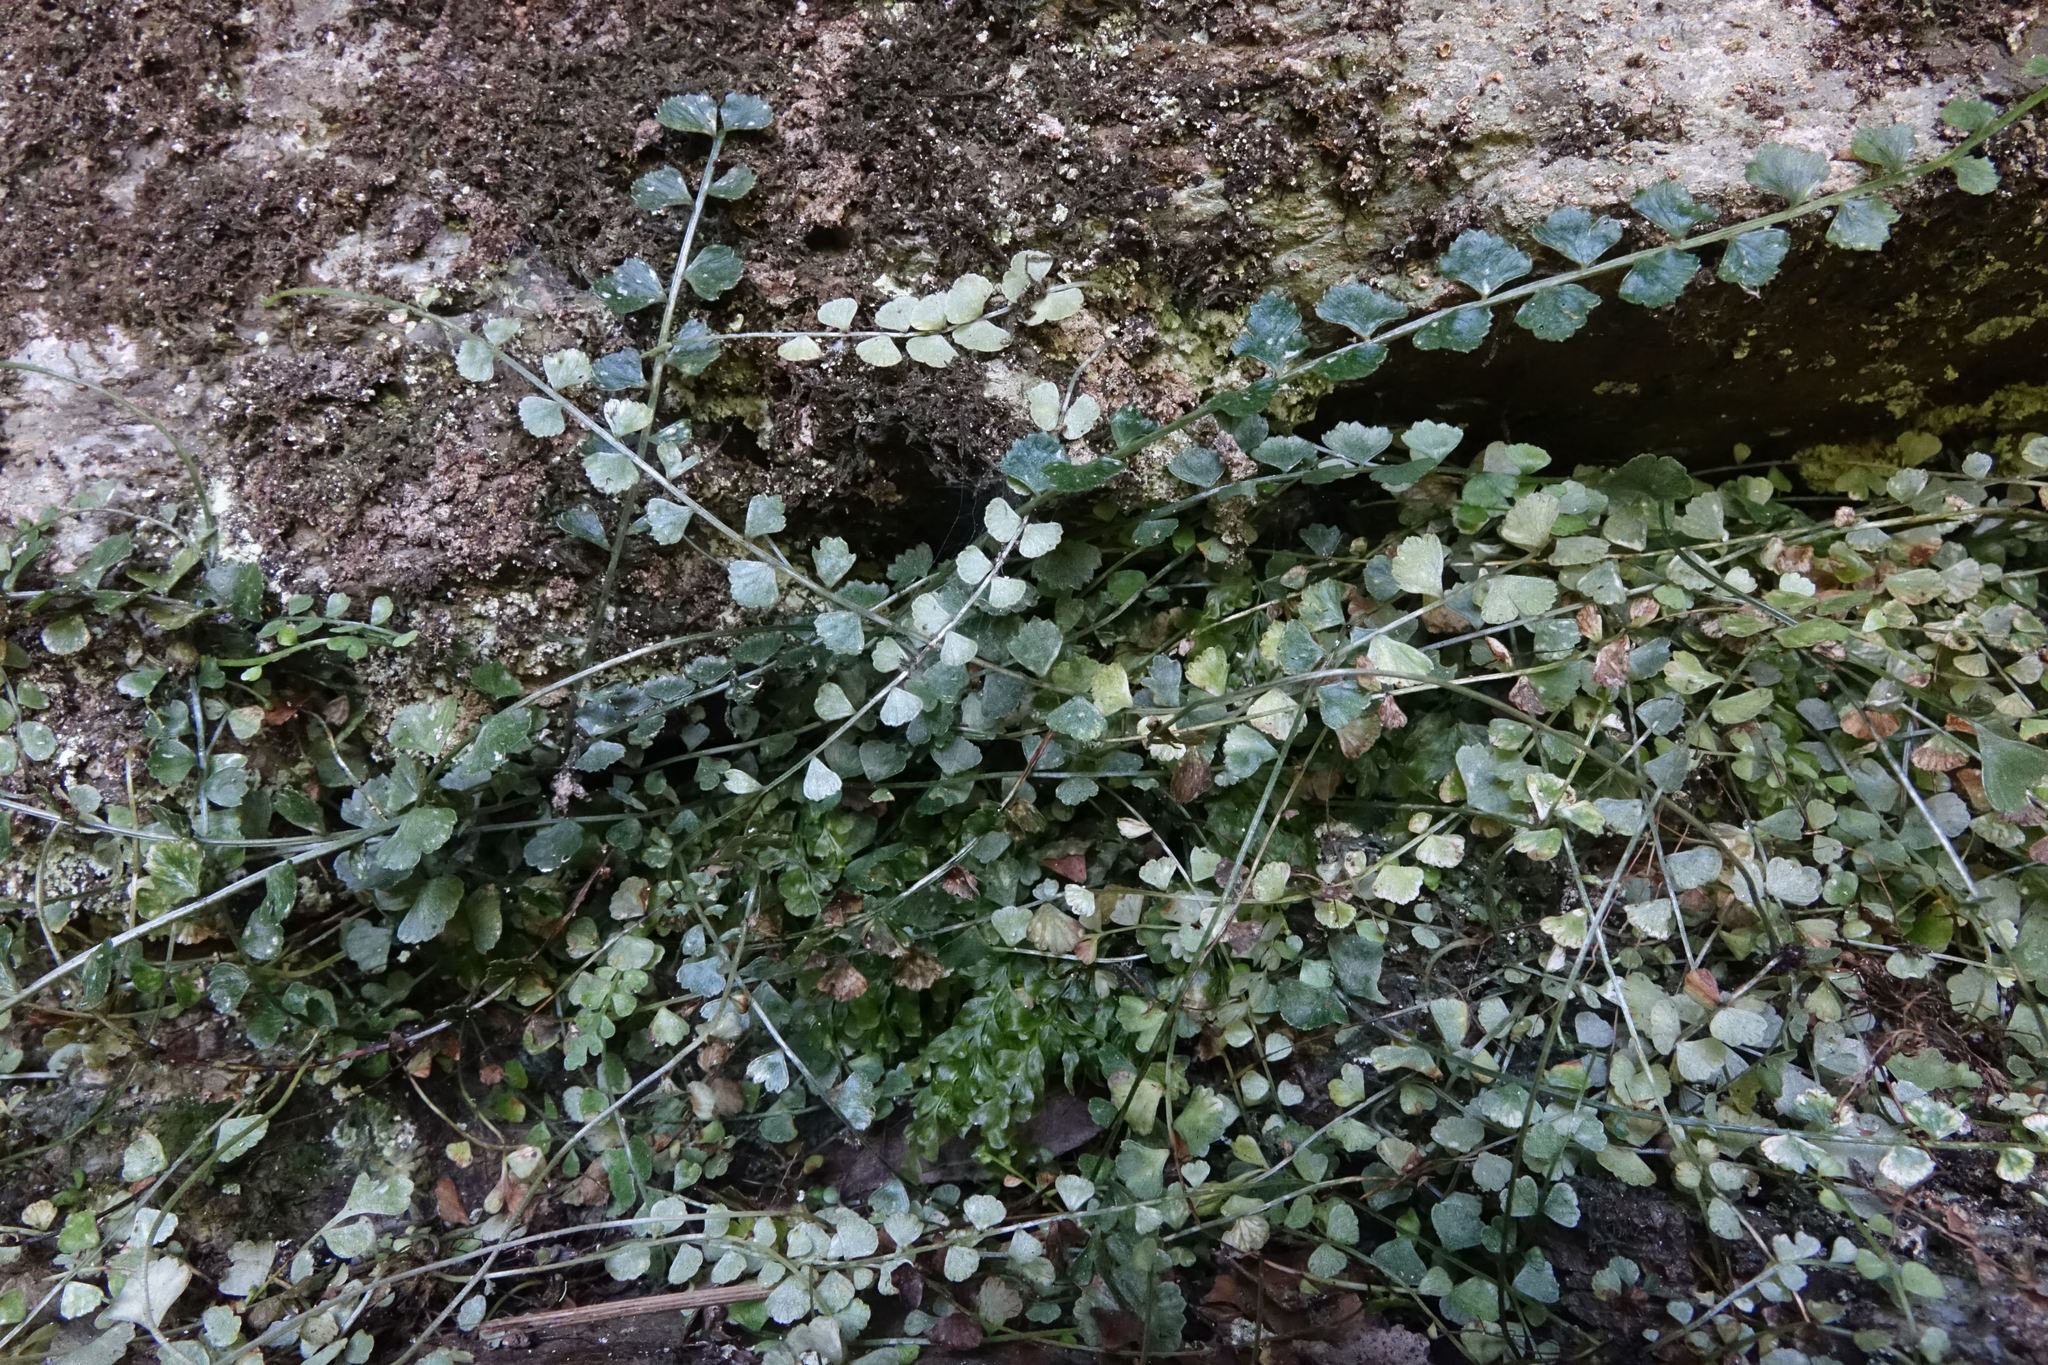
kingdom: Plantae
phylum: Tracheophyta
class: Polypodiopsida
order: Polypodiales
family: Aspleniaceae
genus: Asplenium
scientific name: Asplenium flabellifolium
